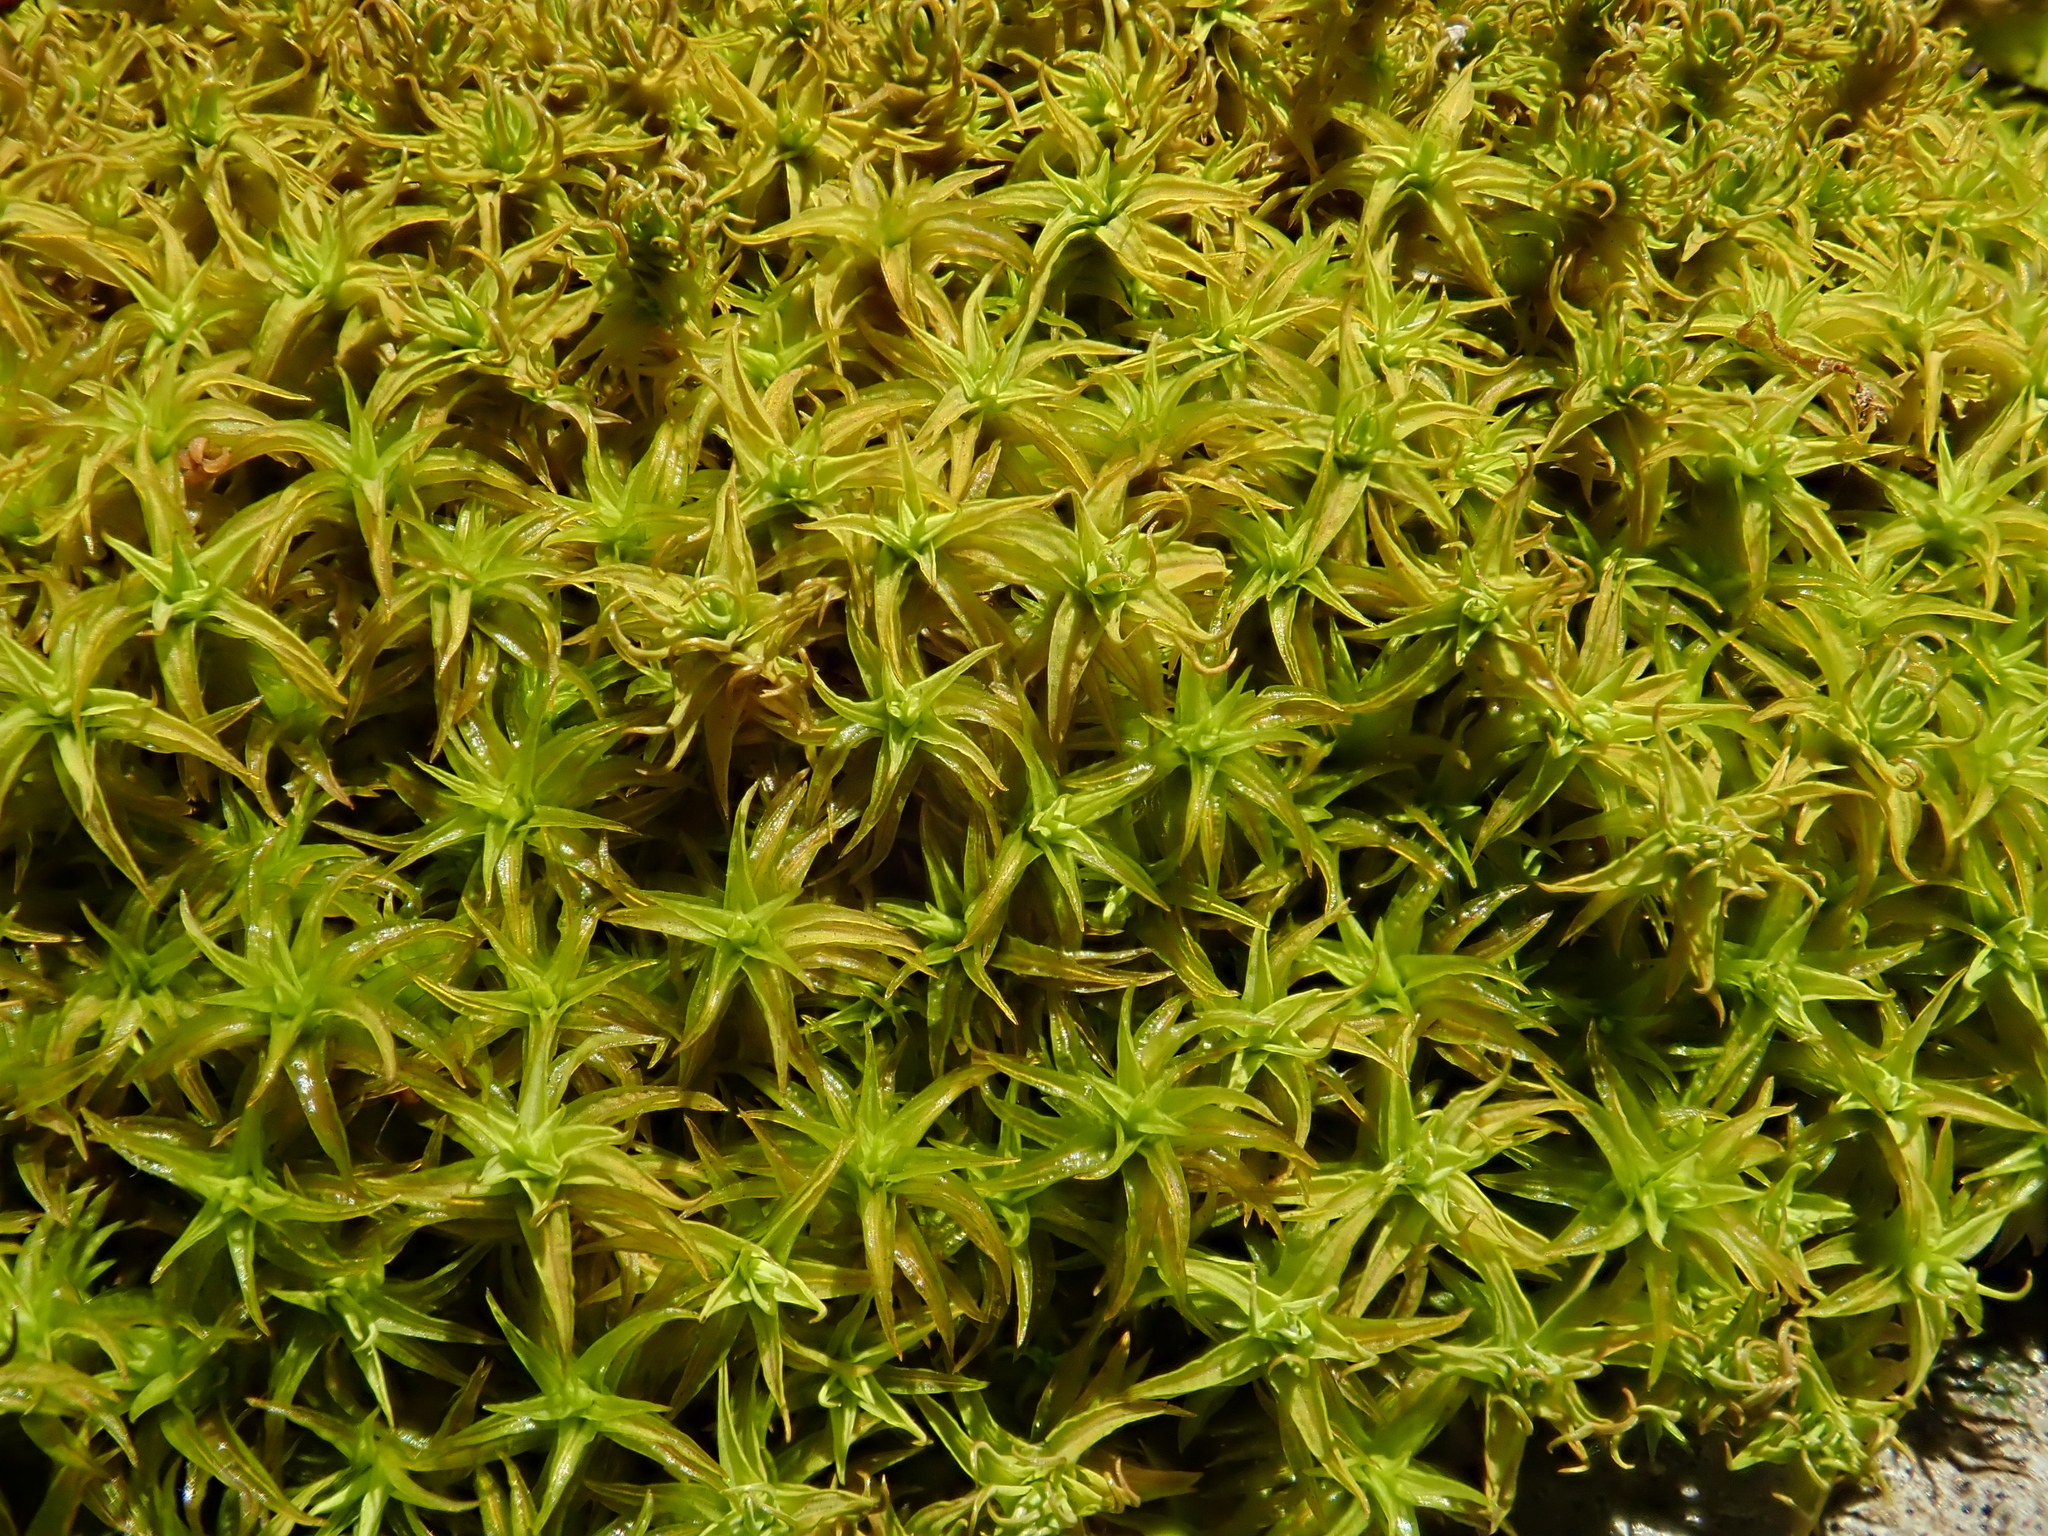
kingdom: Plantae
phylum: Bryophyta
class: Bryopsida
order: Pottiales
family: Pottiaceae
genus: Pleurochaete
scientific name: Pleurochaete squarrosa
